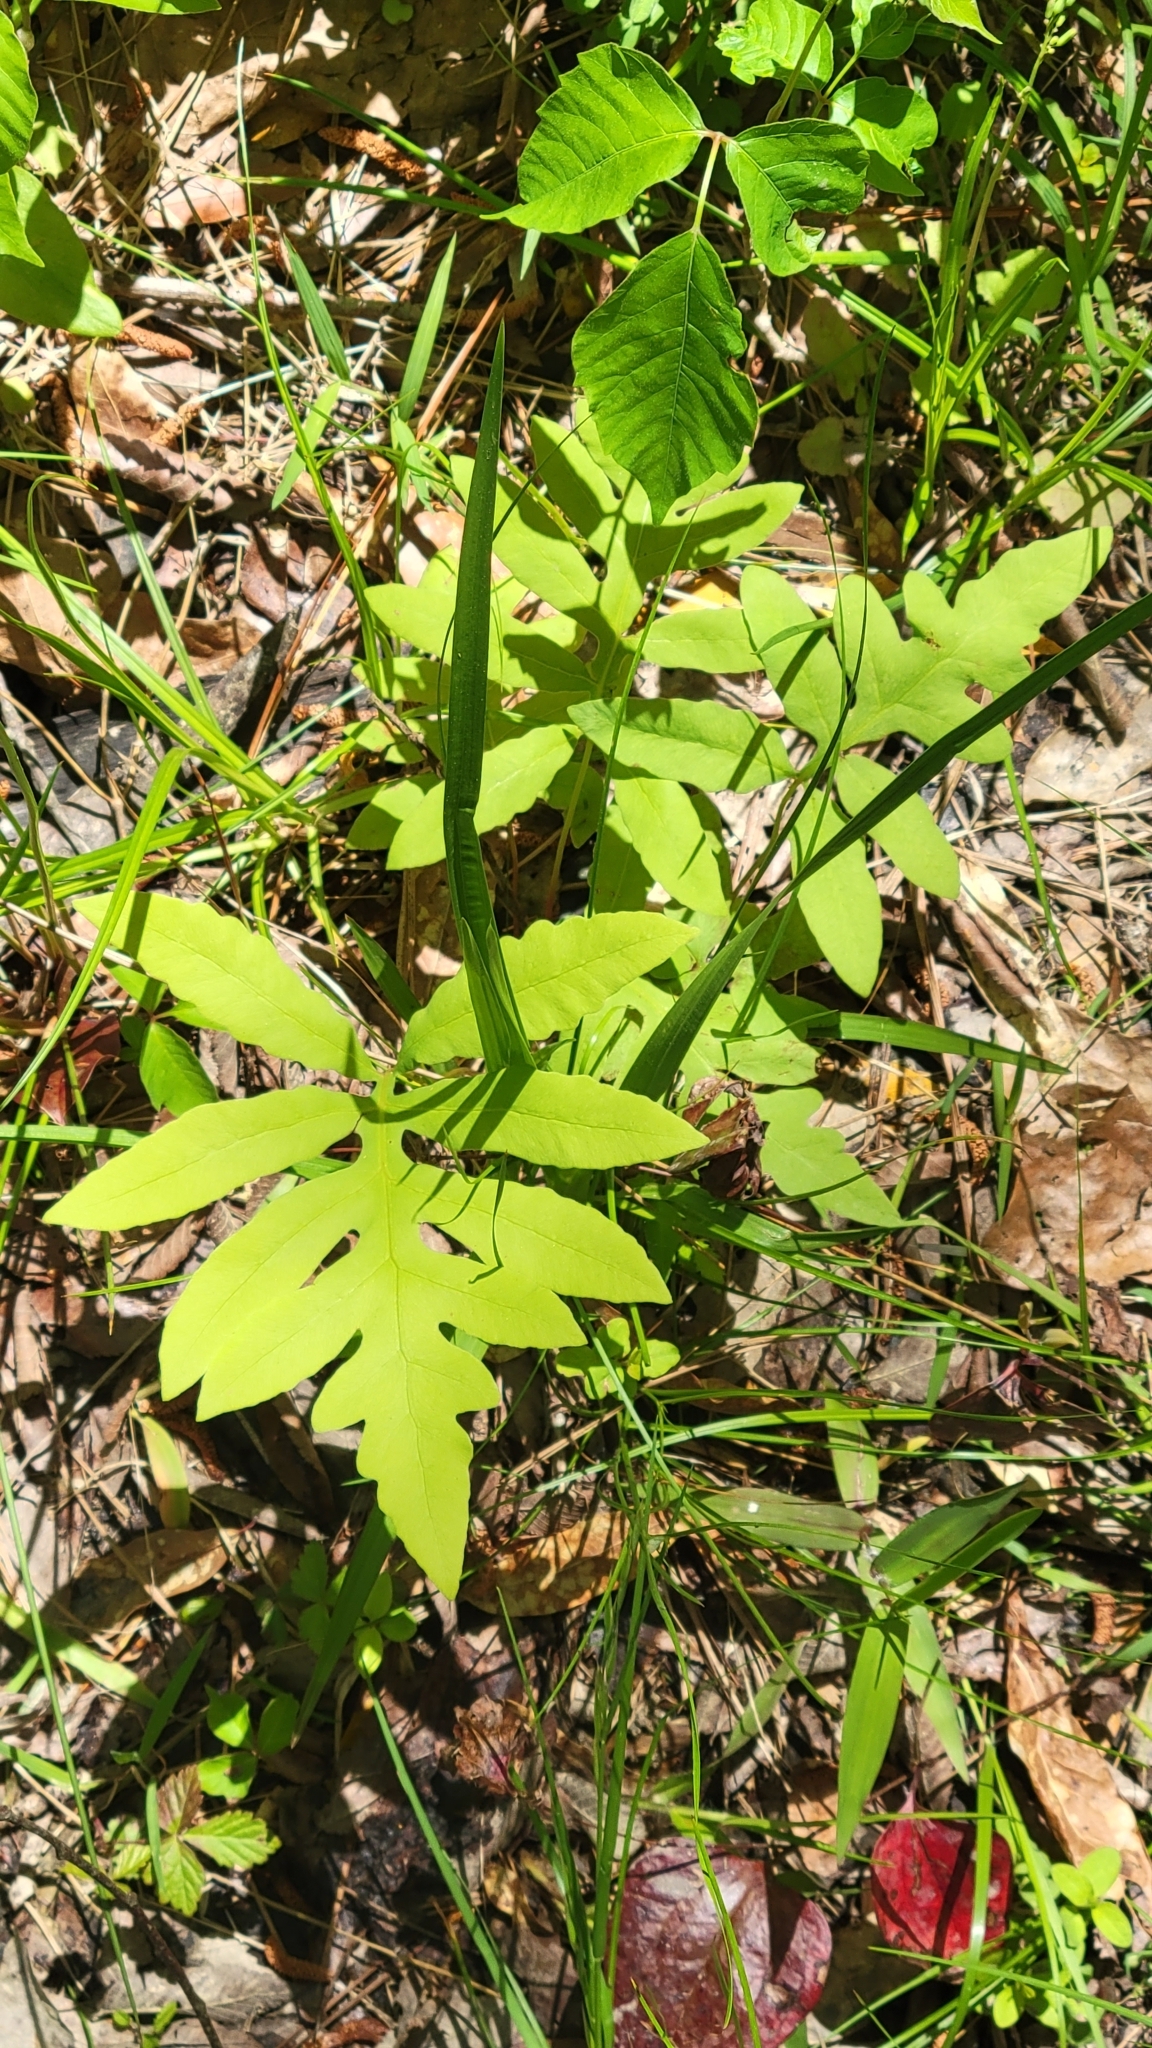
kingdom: Plantae
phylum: Tracheophyta
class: Polypodiopsida
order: Polypodiales
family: Onocleaceae
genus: Onoclea
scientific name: Onoclea sensibilis
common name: Sensitive fern
